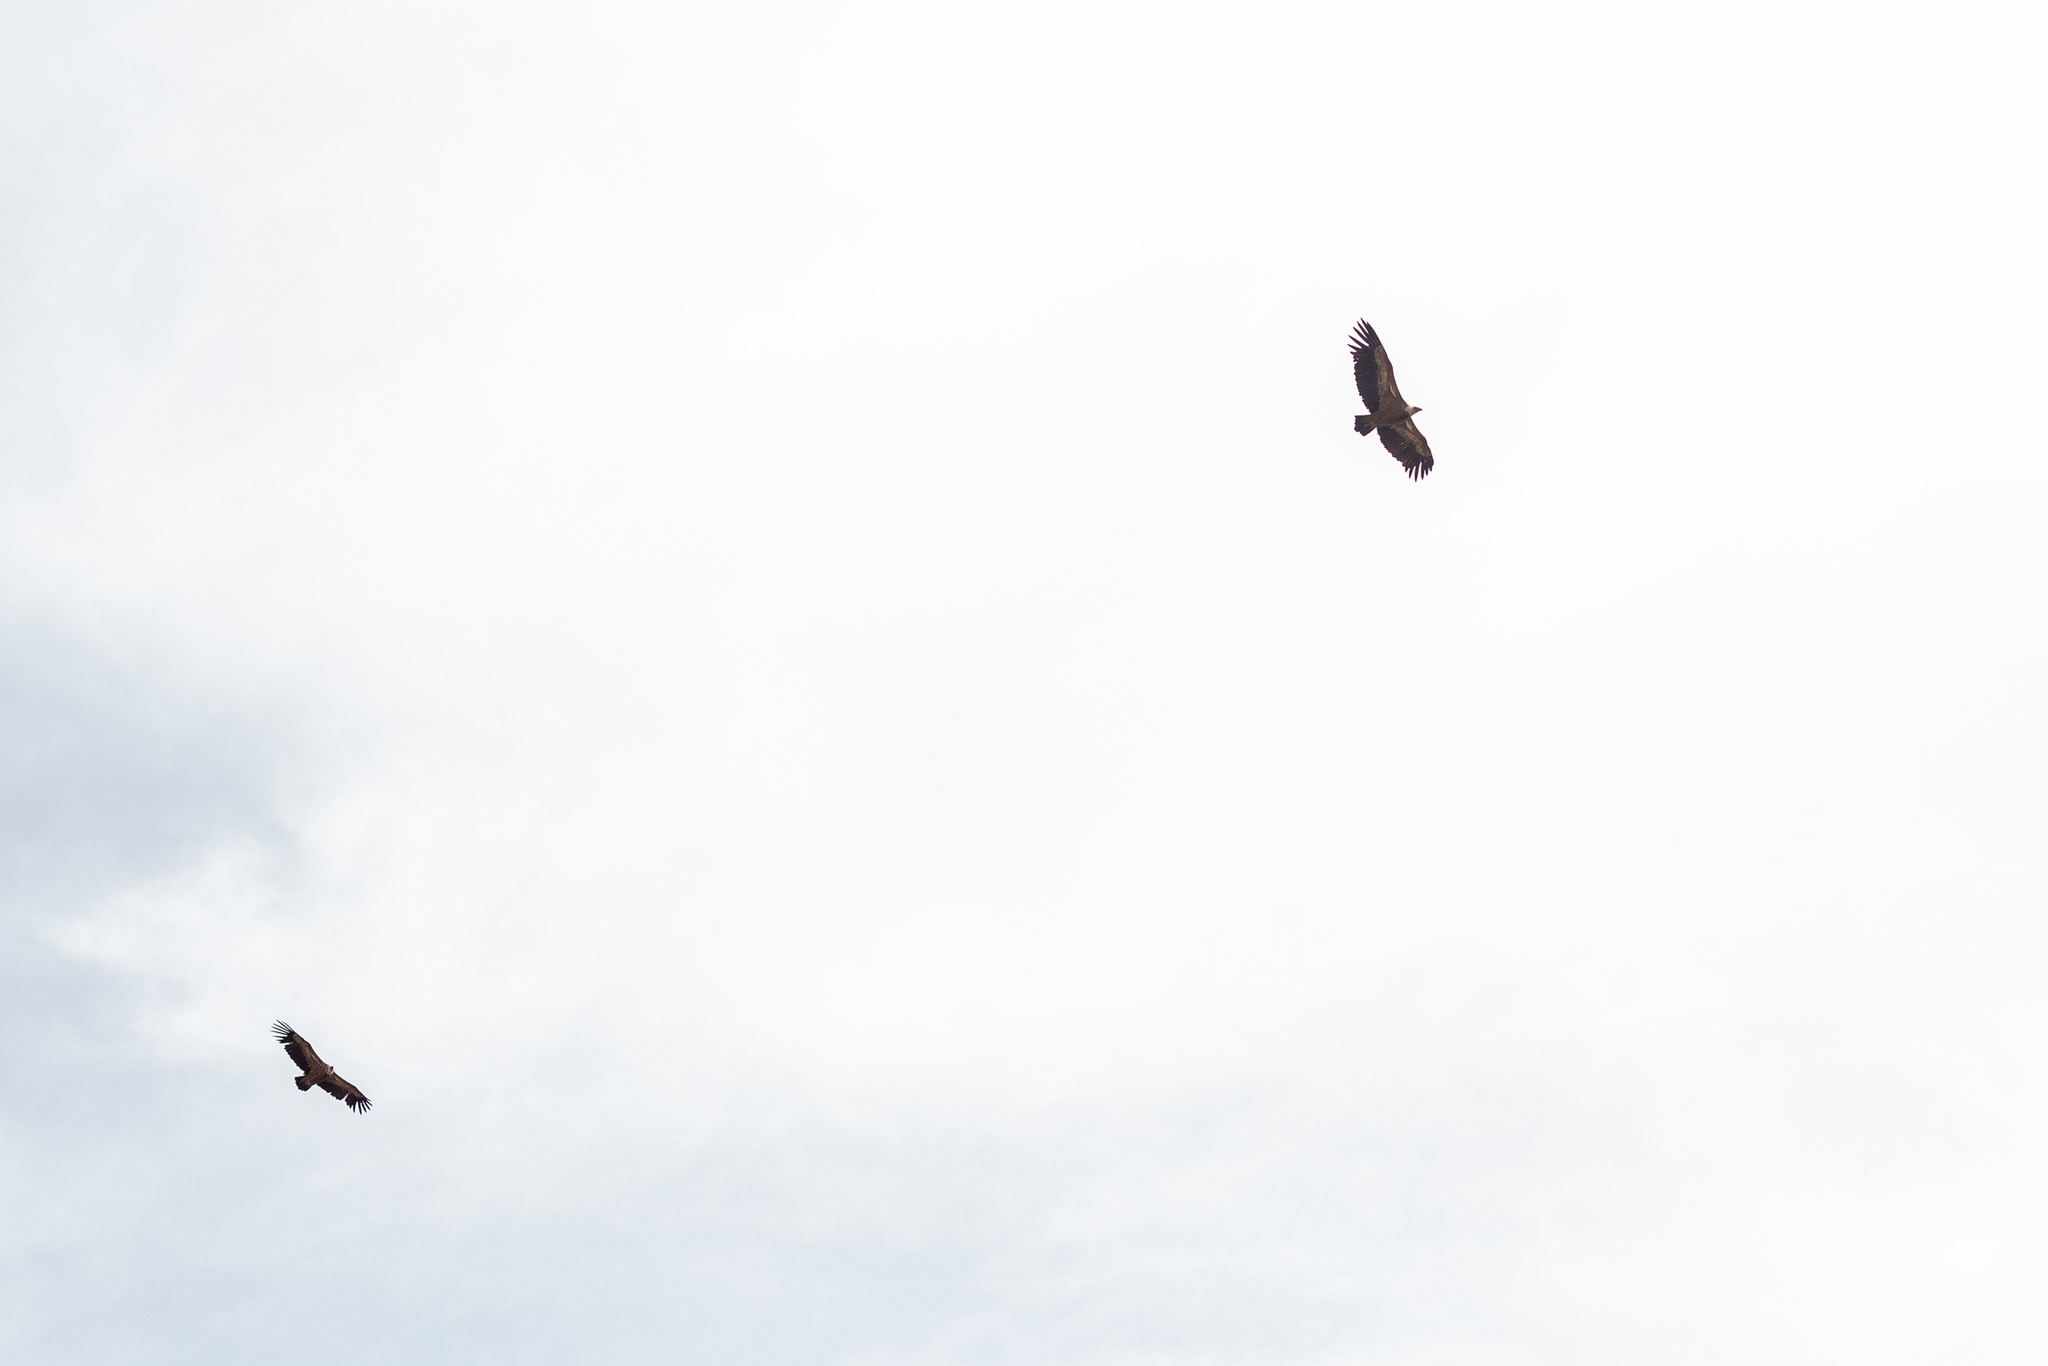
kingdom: Animalia
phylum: Chordata
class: Aves
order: Accipitriformes
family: Accipitridae
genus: Gyps
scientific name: Gyps fulvus
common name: Griffon vulture
